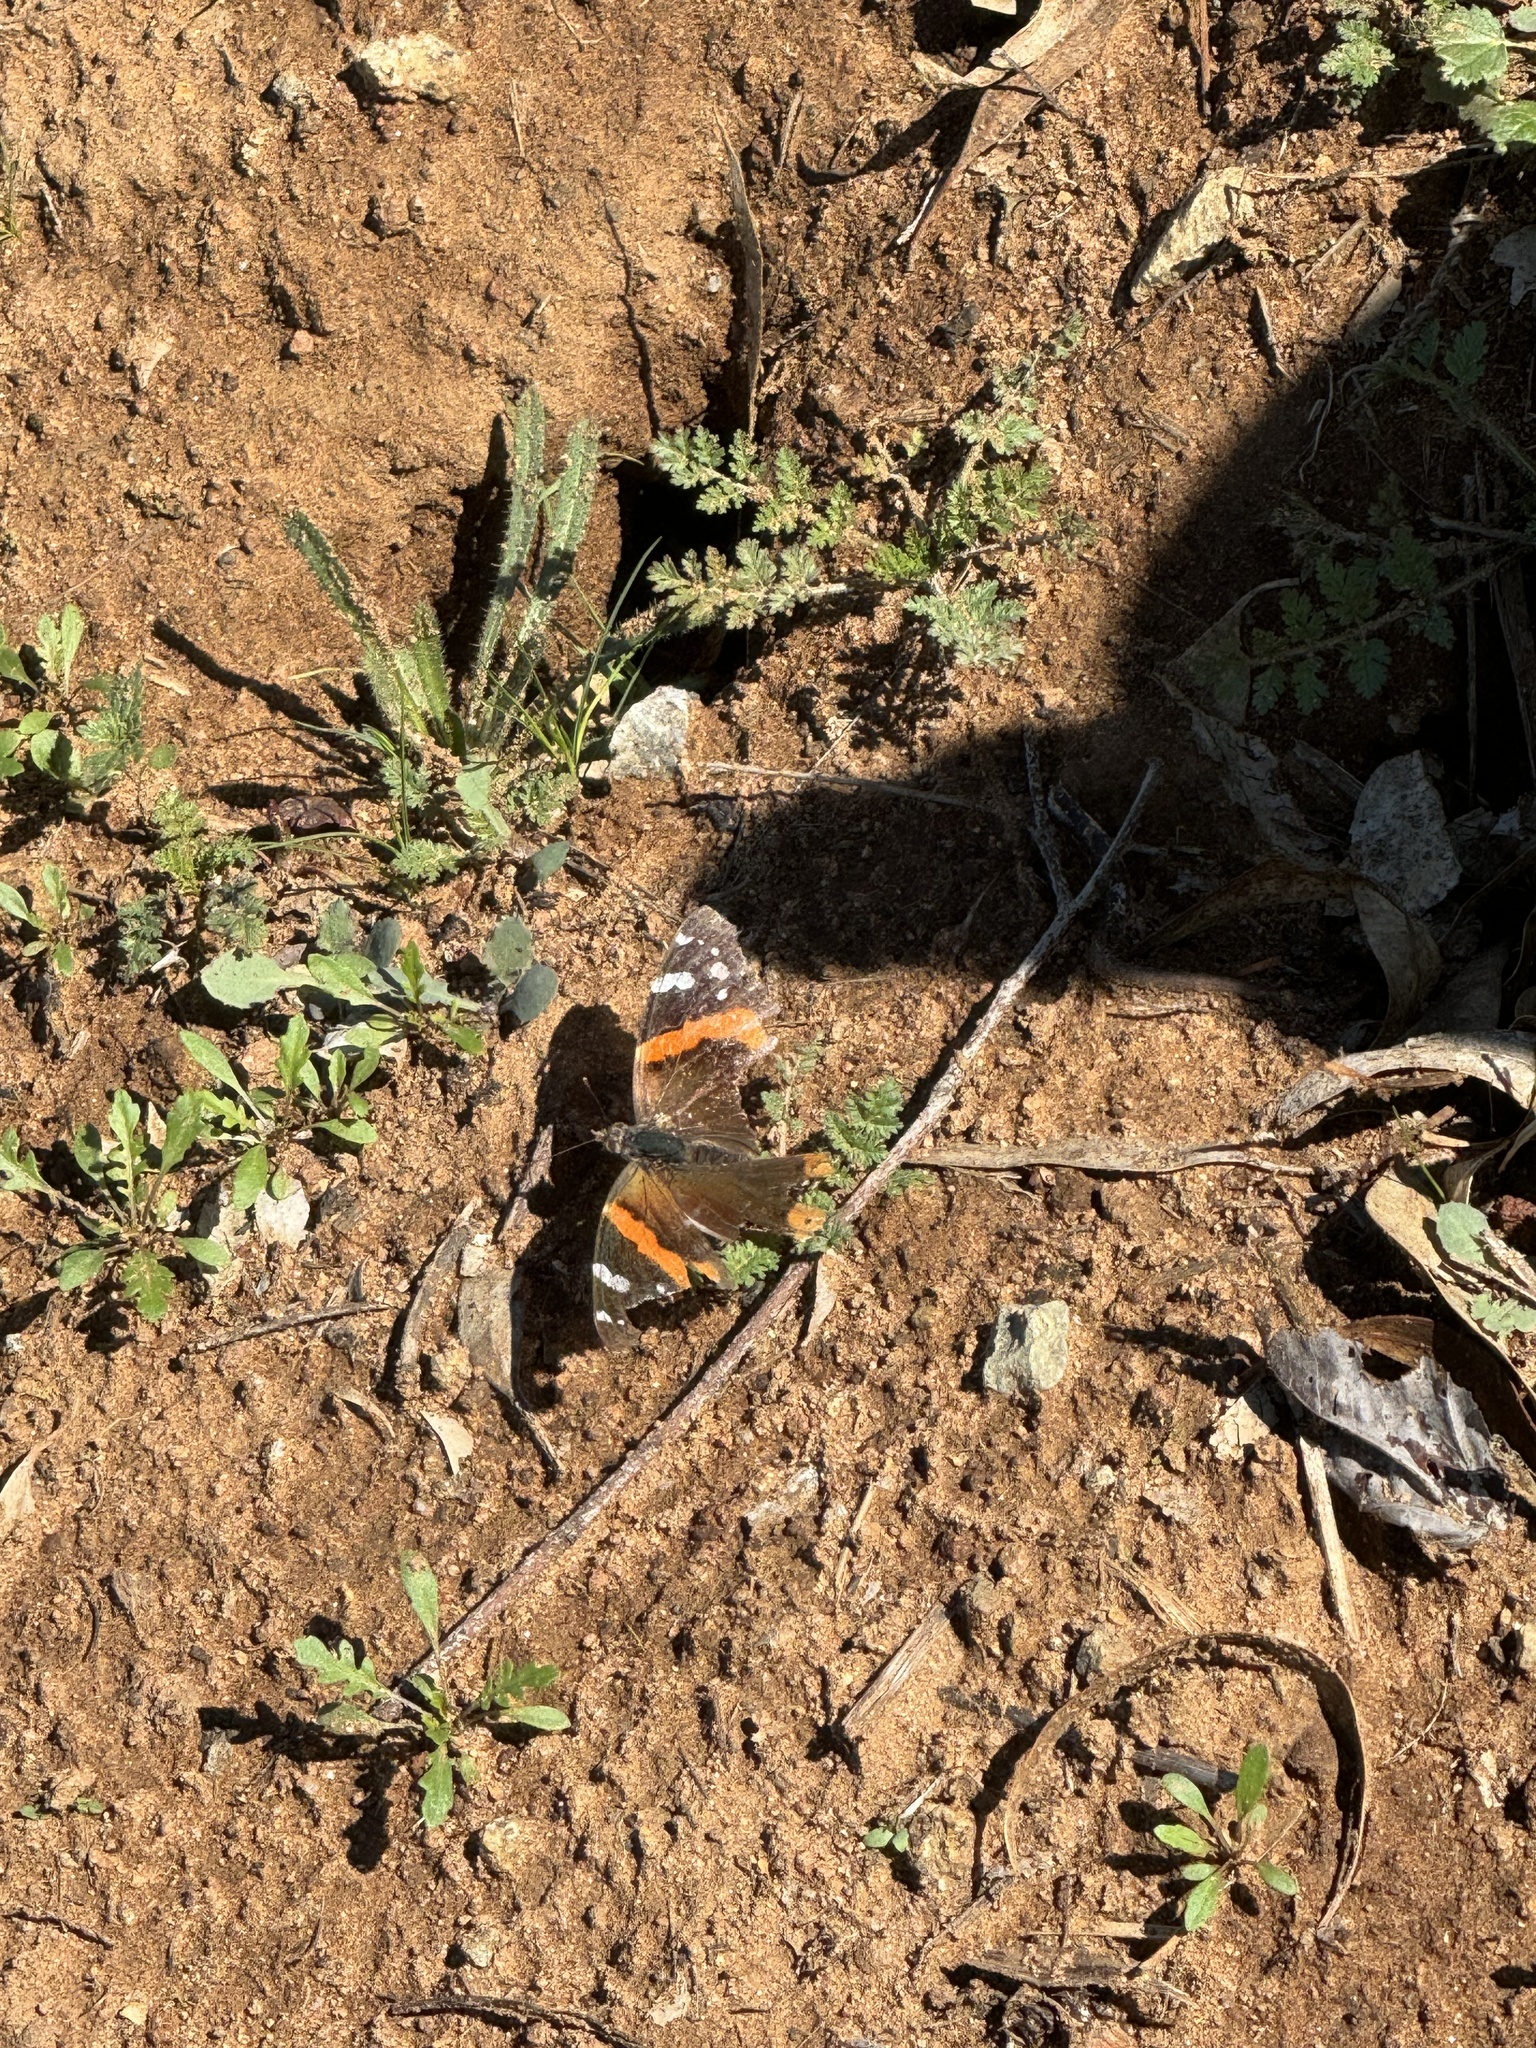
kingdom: Animalia
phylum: Arthropoda
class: Insecta
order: Lepidoptera
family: Nymphalidae
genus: Vanessa
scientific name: Vanessa atalanta
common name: Red admiral
